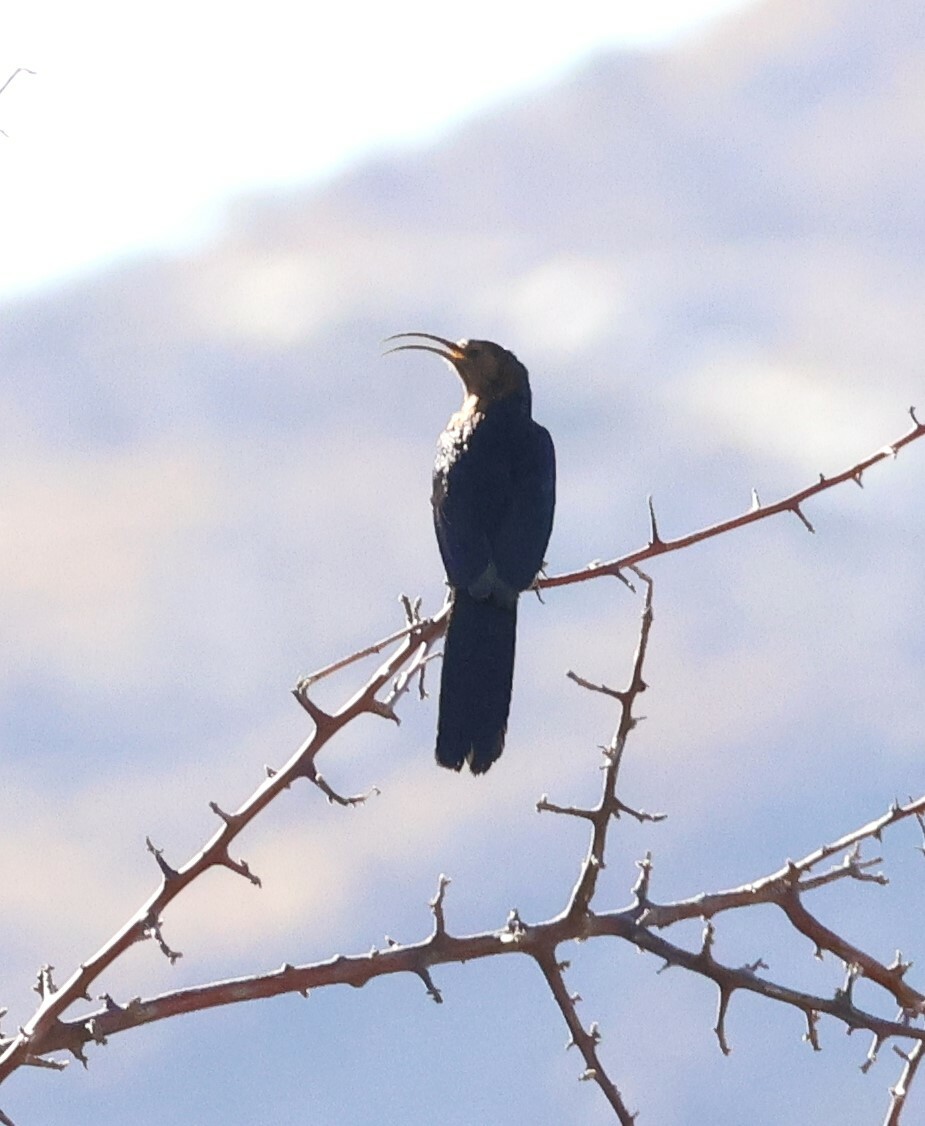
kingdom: Animalia
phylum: Chordata
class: Aves
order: Bucerotiformes
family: Phoeniculidae
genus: Rhinopomastus
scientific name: Rhinopomastus cyanomelas
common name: Common scimitarbill
